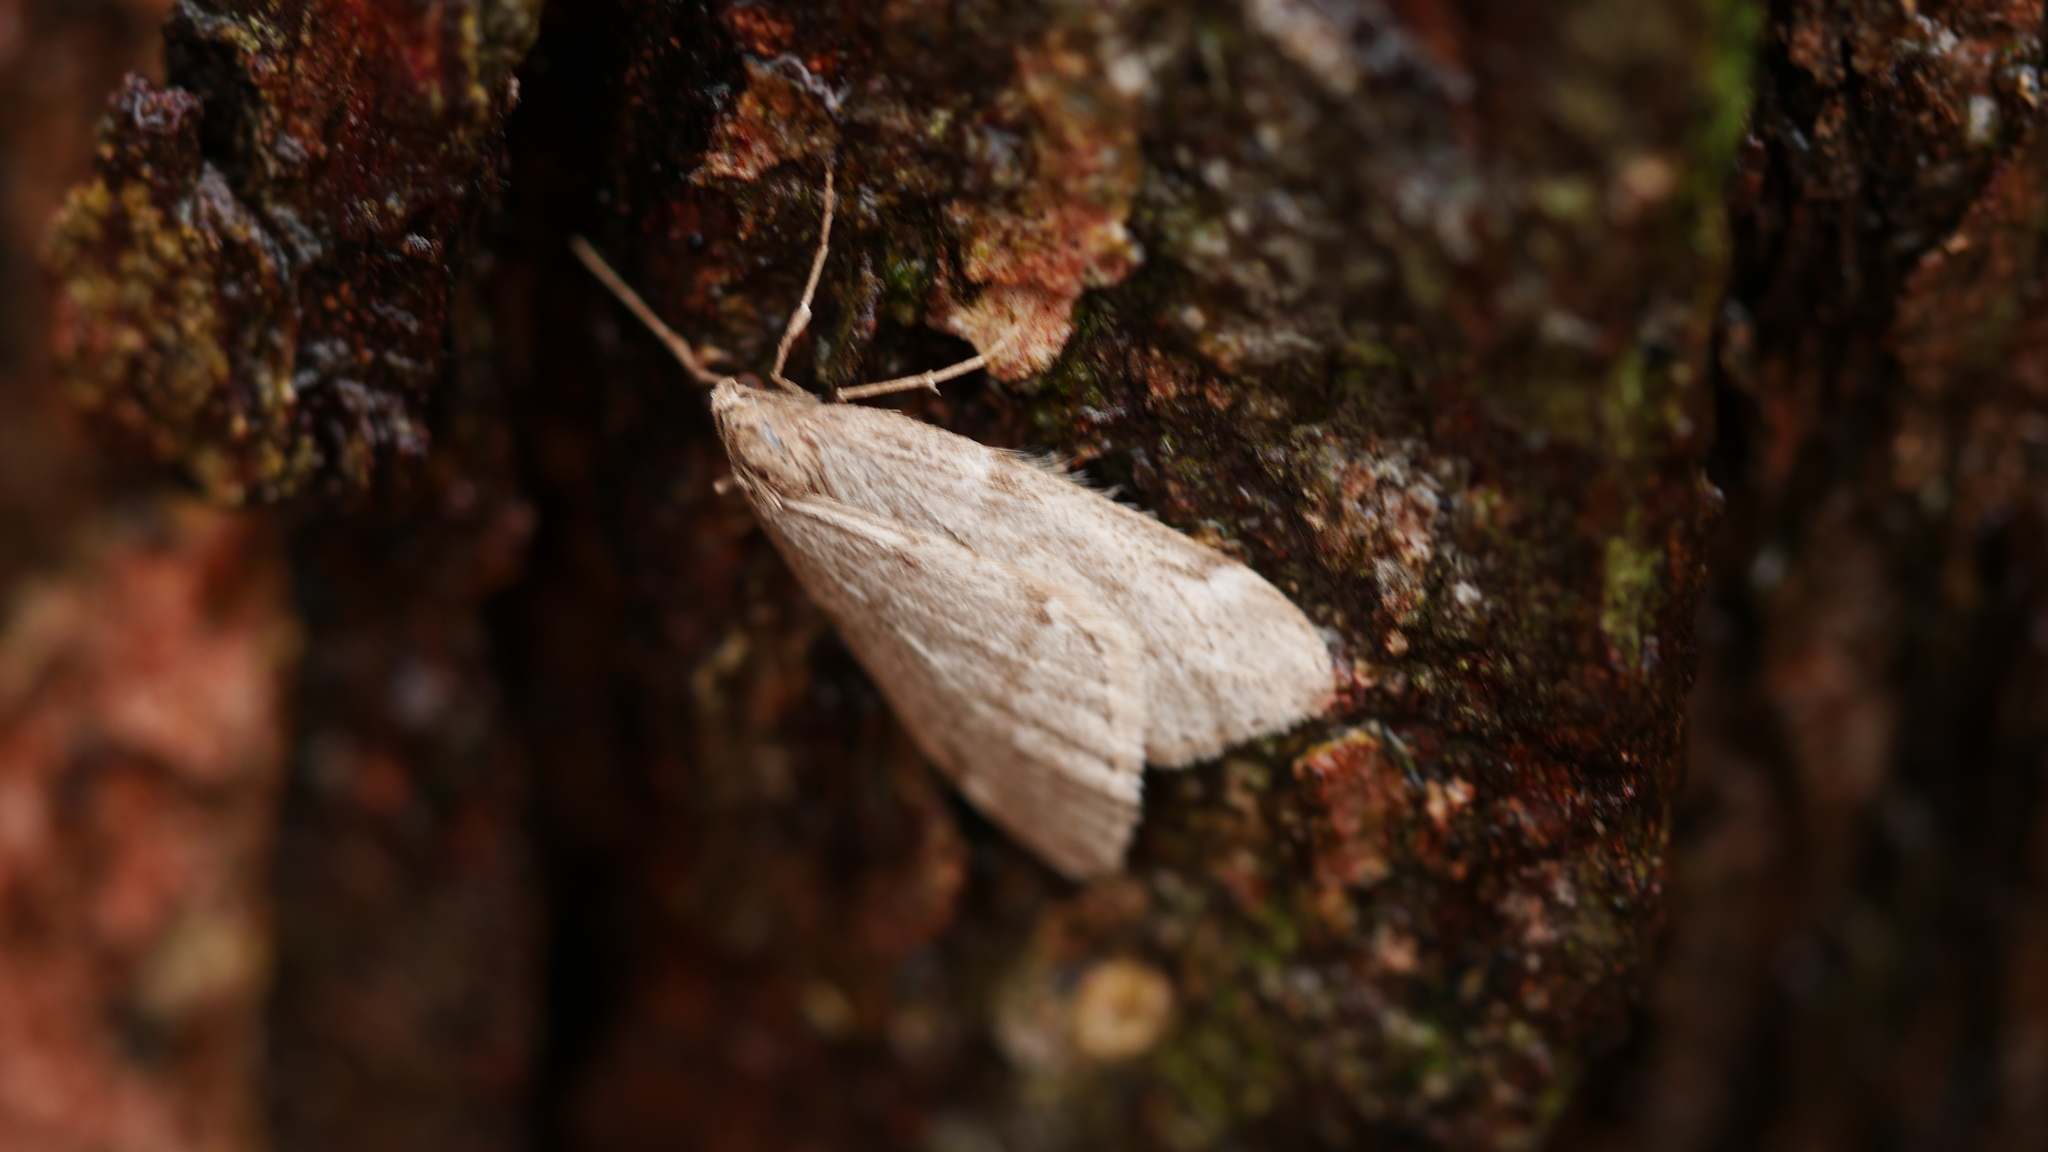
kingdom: Animalia
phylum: Arthropoda
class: Insecta
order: Lepidoptera
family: Geometridae
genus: Alsophila
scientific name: Alsophila pometaria
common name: Fall cankerworm
